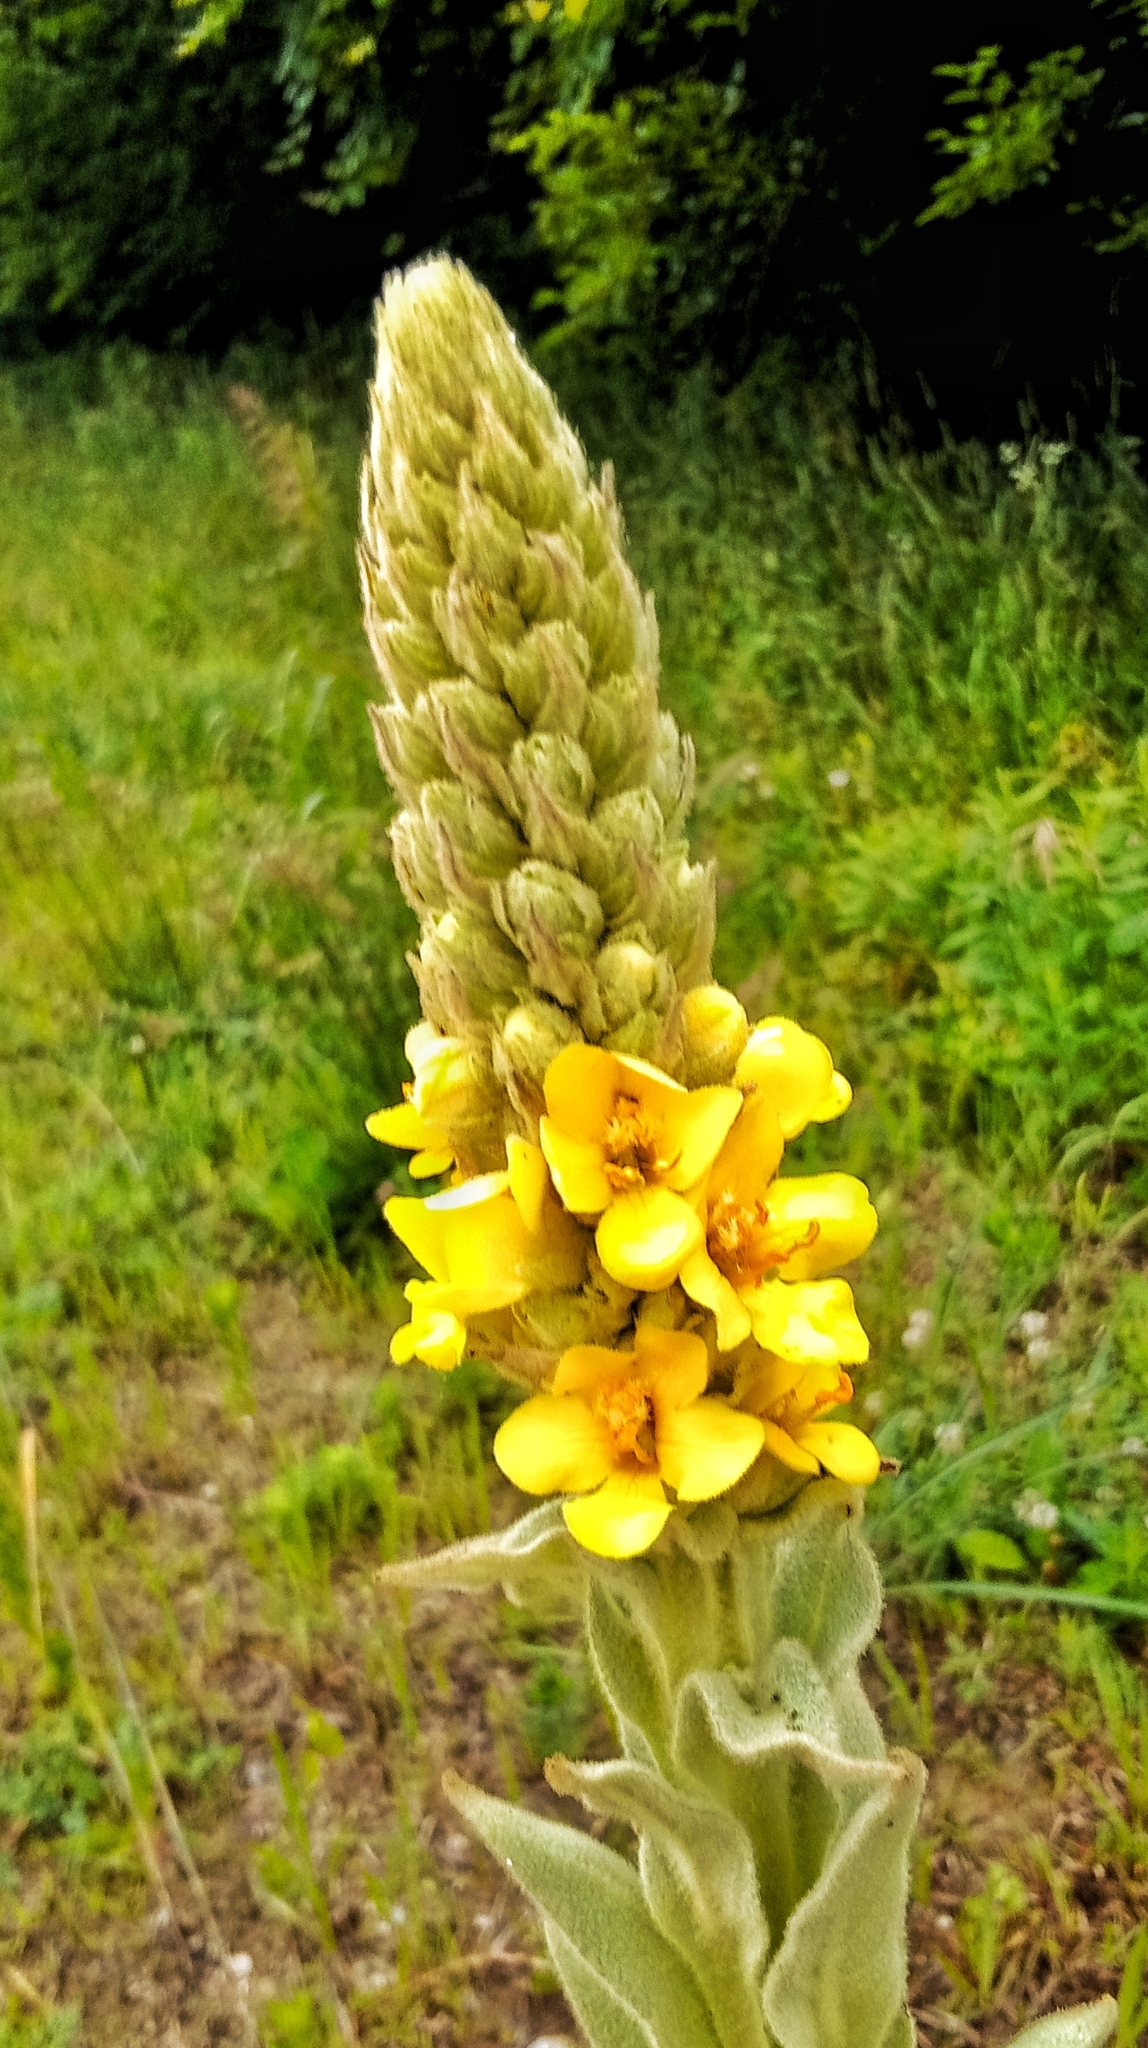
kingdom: Plantae
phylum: Tracheophyta
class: Magnoliopsida
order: Lamiales
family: Scrophulariaceae
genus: Verbascum
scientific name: Verbascum thapsus
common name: Common mullein
